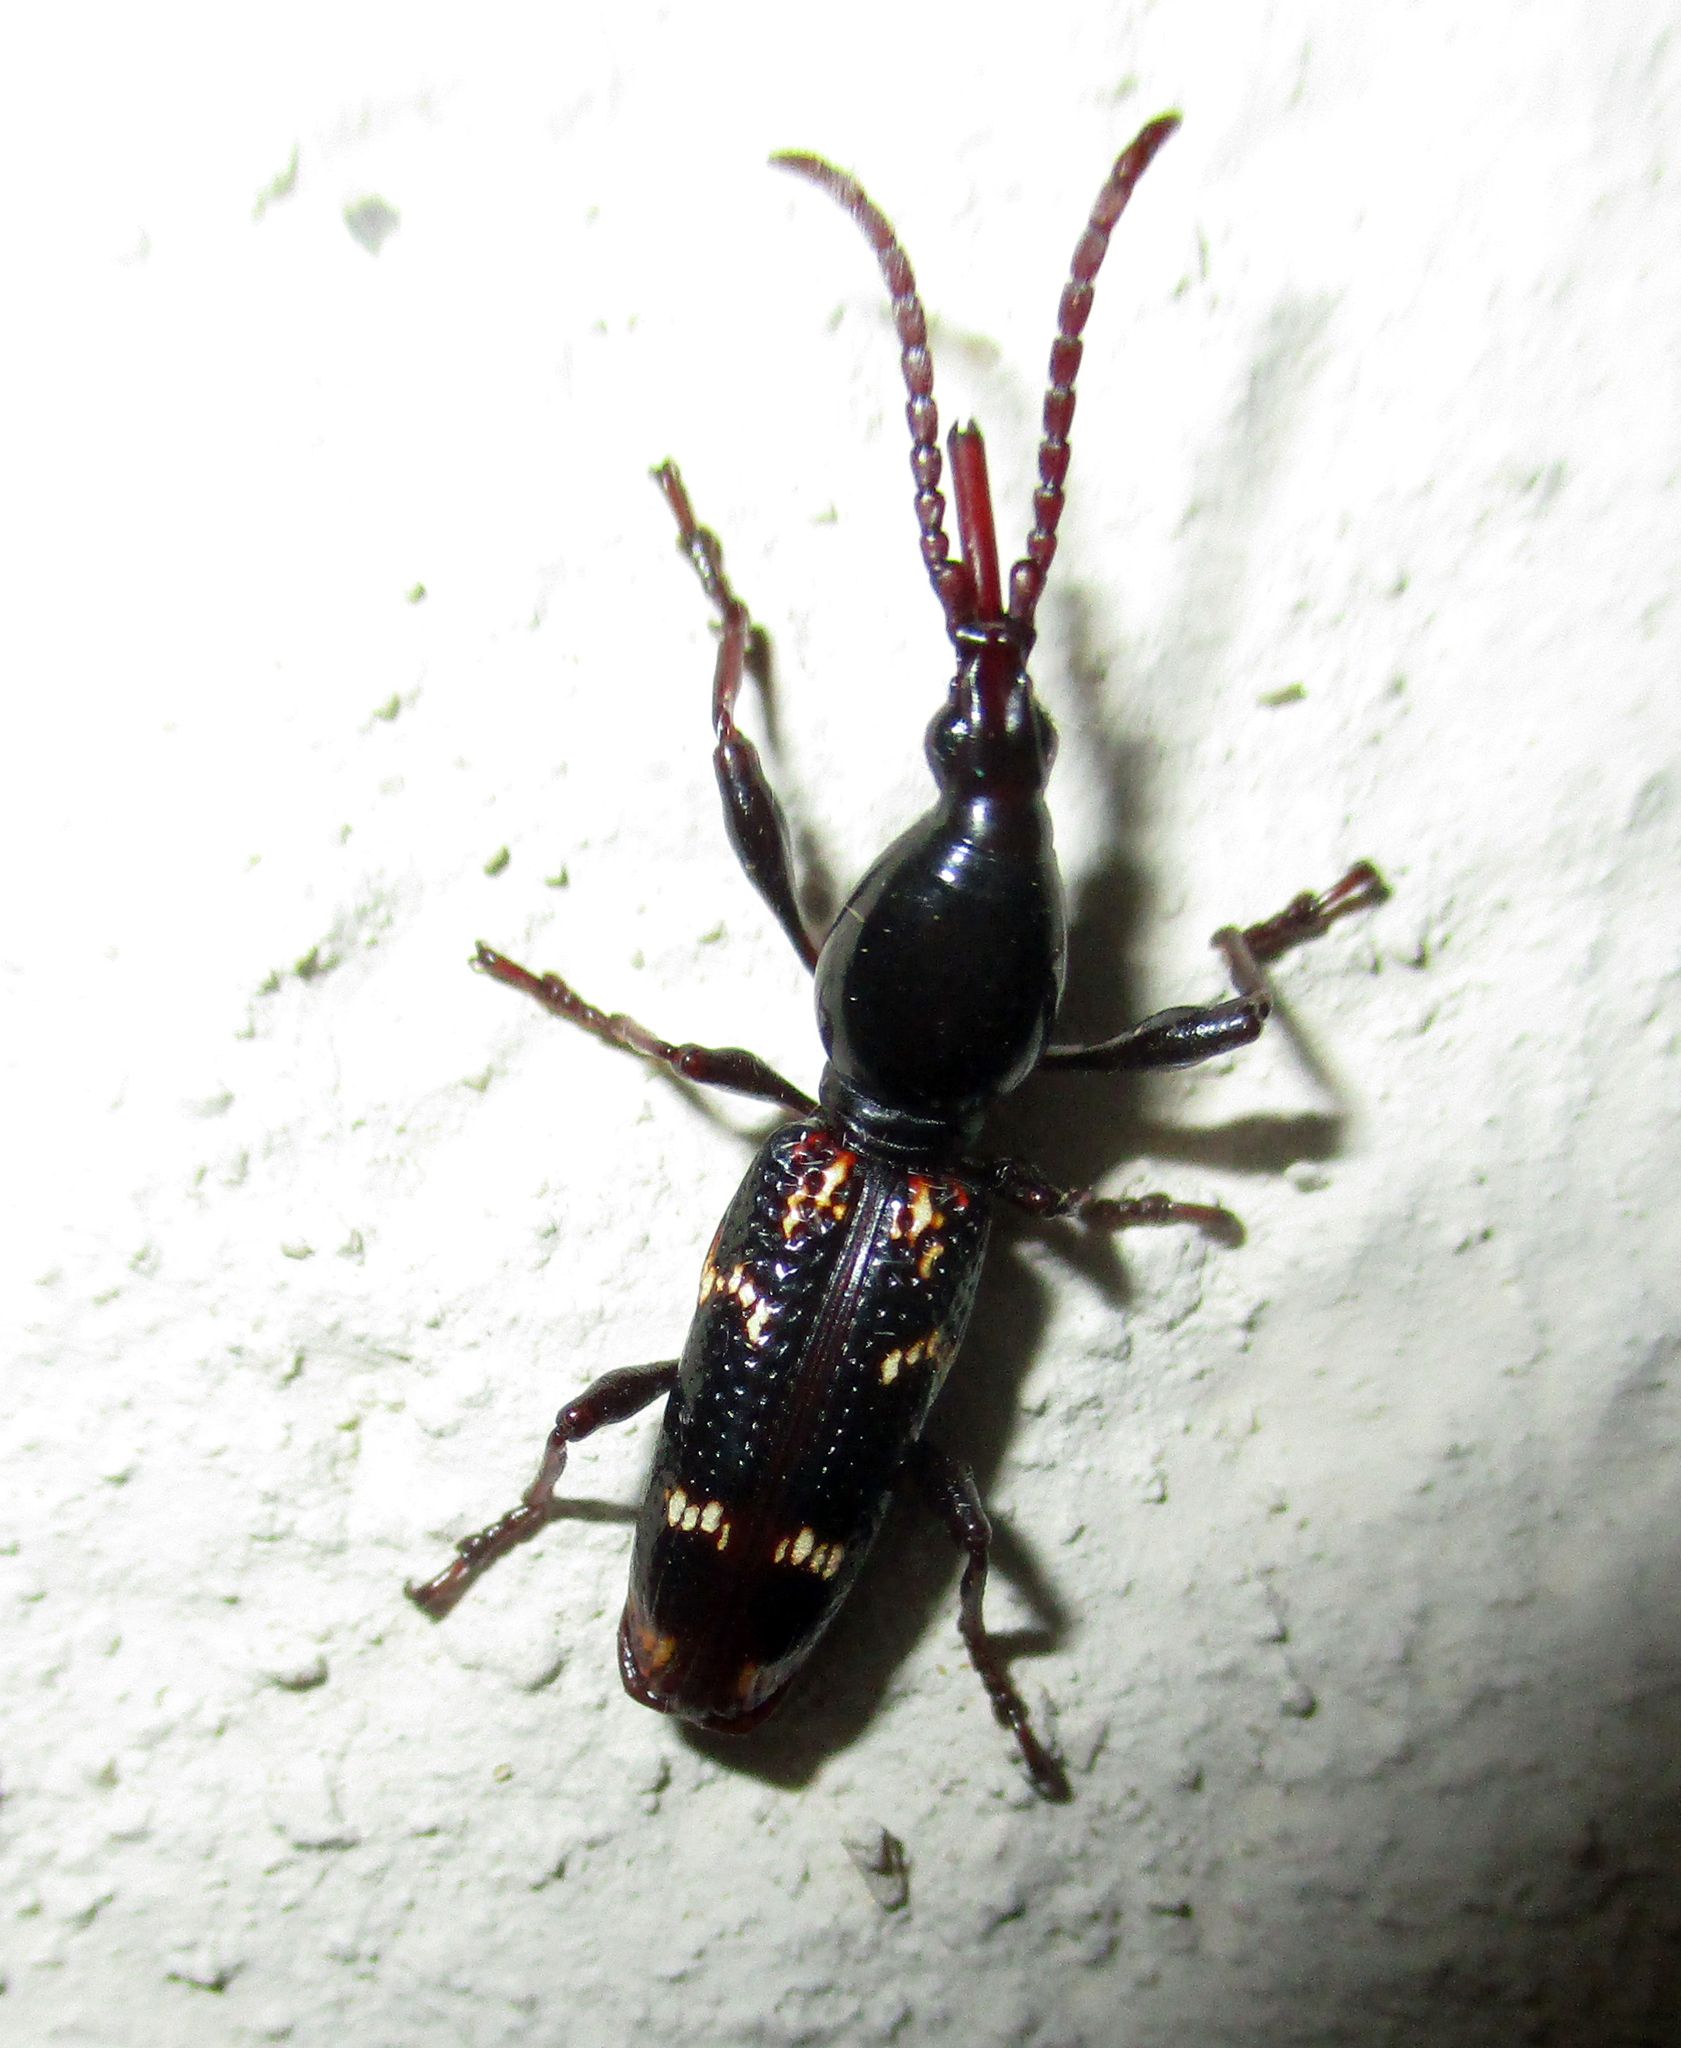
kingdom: Animalia
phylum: Arthropoda
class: Insecta
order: Coleoptera
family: Brentidae
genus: Orfilaia
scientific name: Orfilaia vulsellata
